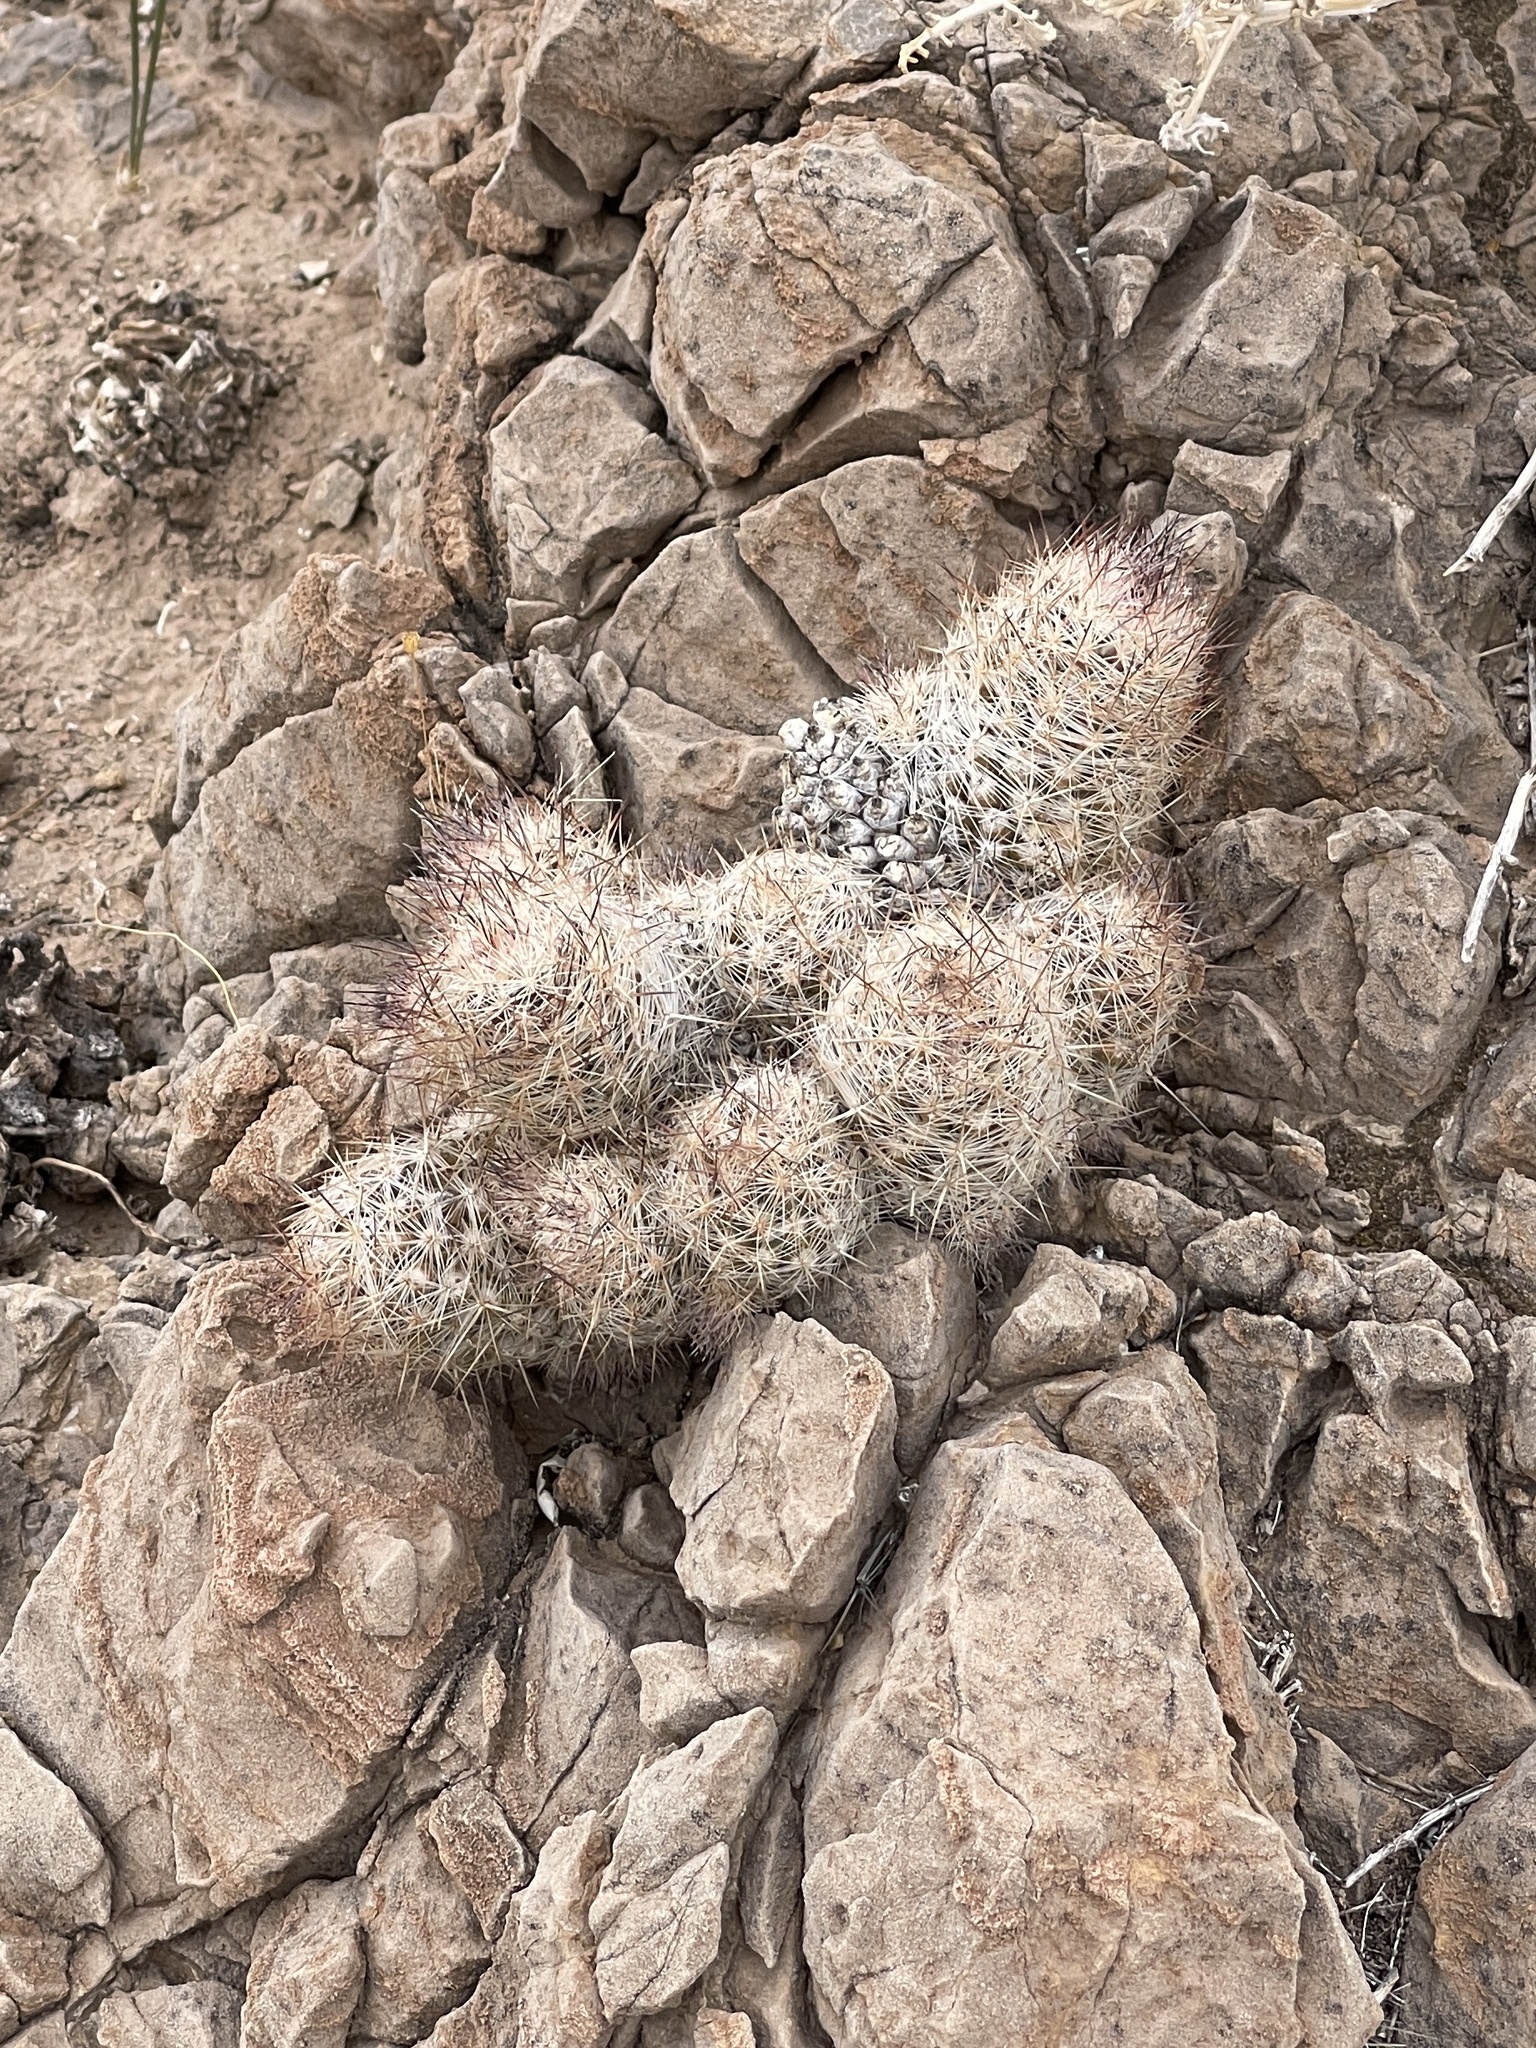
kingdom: Plantae
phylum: Tracheophyta
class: Magnoliopsida
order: Caryophyllales
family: Cactaceae
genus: Pelecyphora
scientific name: Pelecyphora tuberculosa
